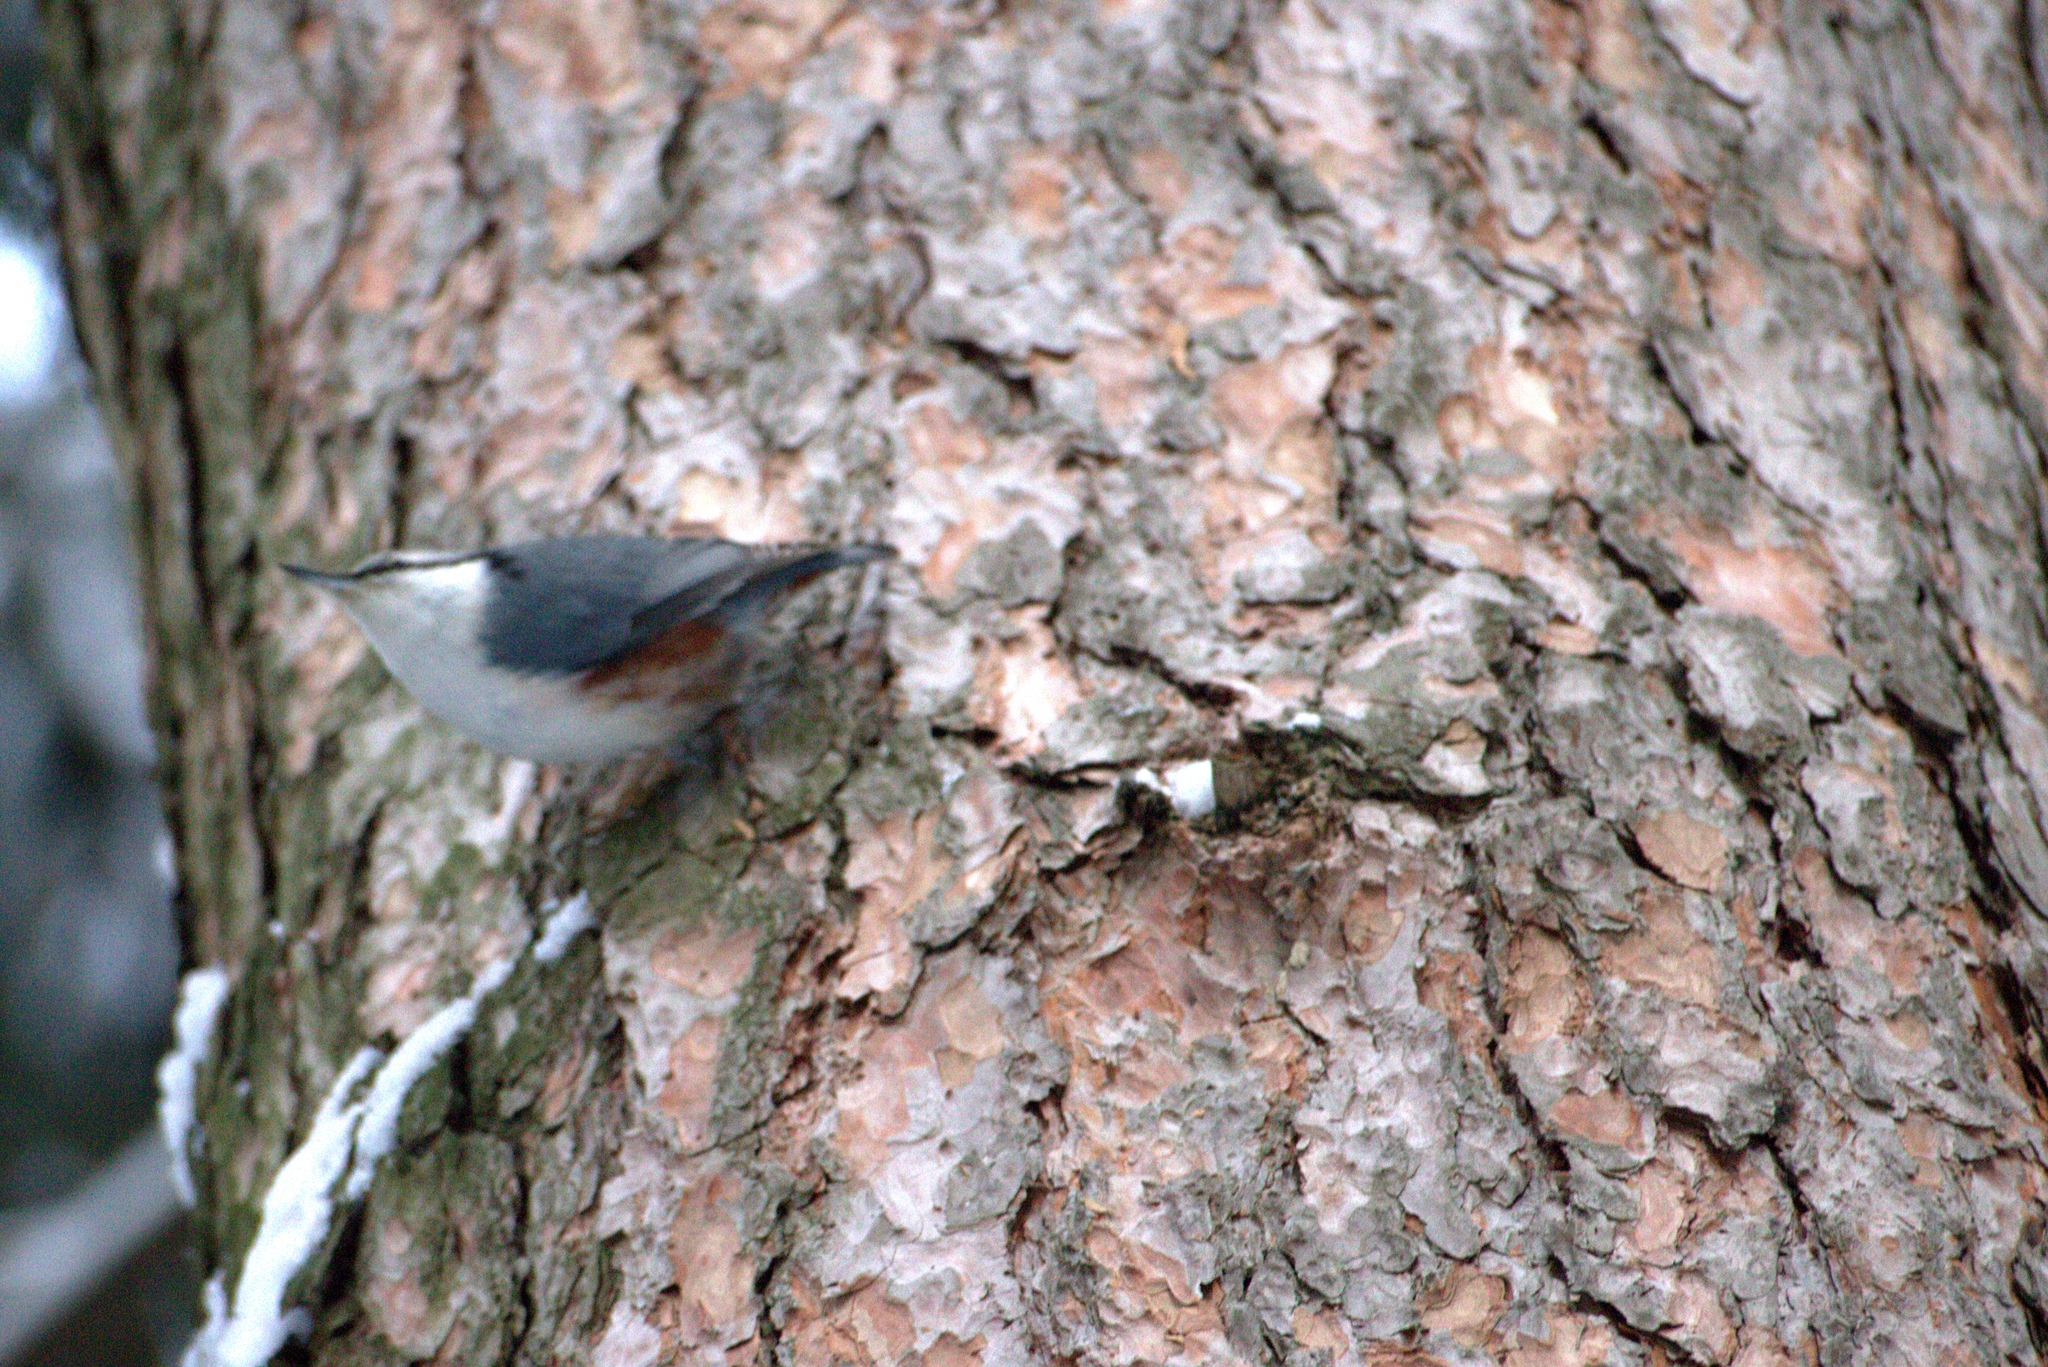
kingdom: Animalia
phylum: Chordata
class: Aves
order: Passeriformes
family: Sittidae
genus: Sitta
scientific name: Sitta europaea
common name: Eurasian nuthatch
